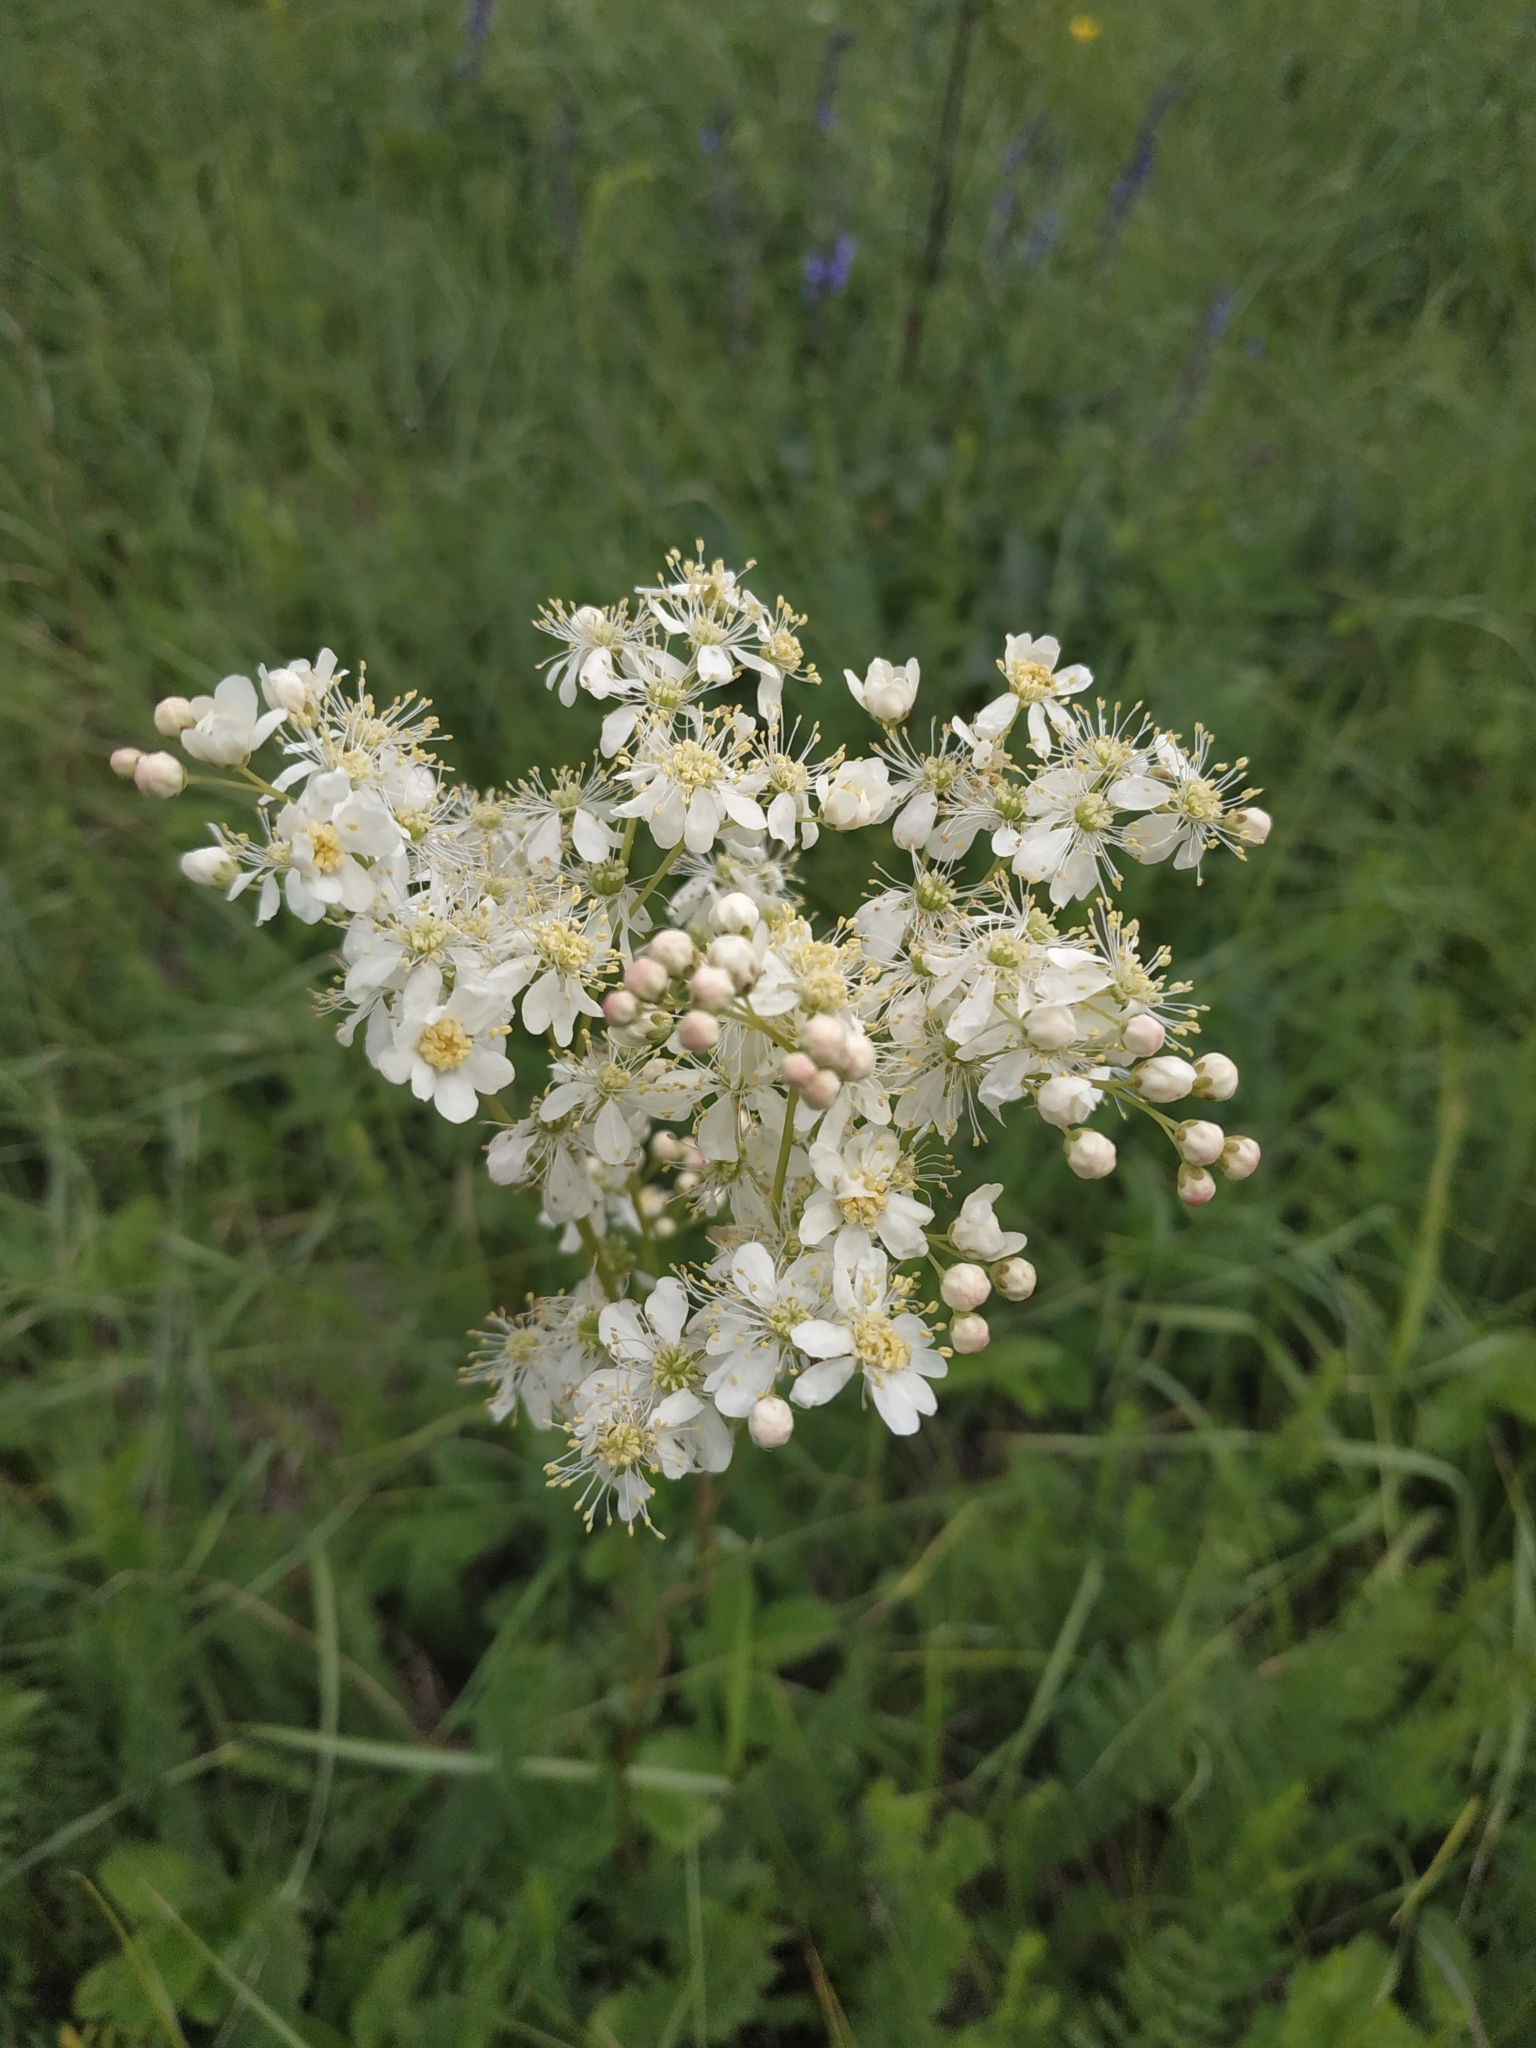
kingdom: Plantae
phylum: Tracheophyta
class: Magnoliopsida
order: Rosales
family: Rosaceae
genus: Filipendula
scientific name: Filipendula vulgaris
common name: Dropwort
